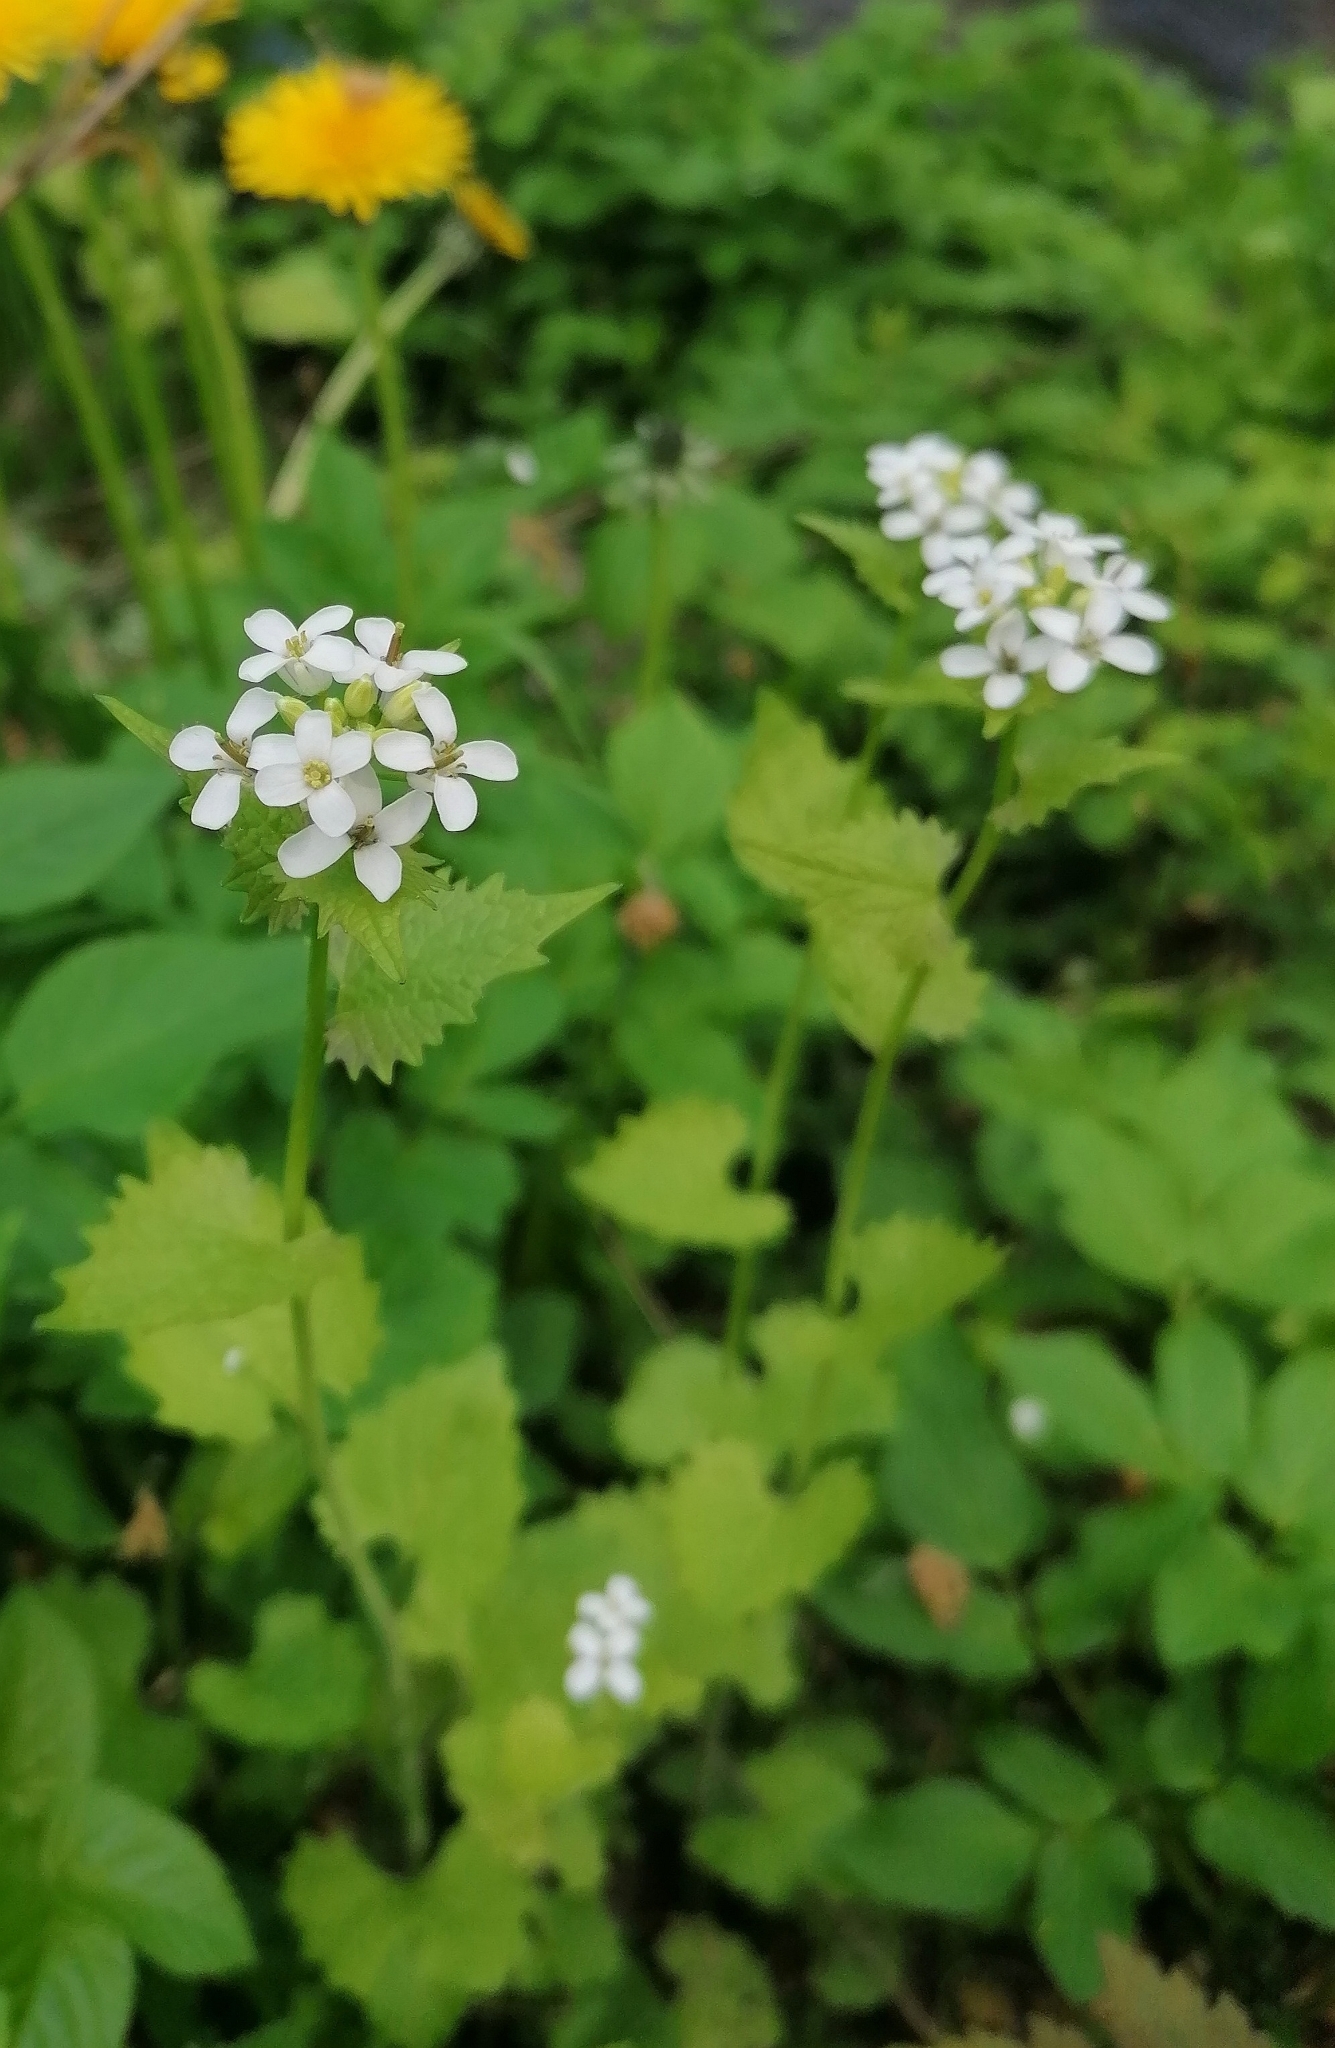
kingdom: Plantae
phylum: Tracheophyta
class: Magnoliopsida
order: Brassicales
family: Brassicaceae
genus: Alliaria
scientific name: Alliaria petiolata
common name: Garlic mustard
